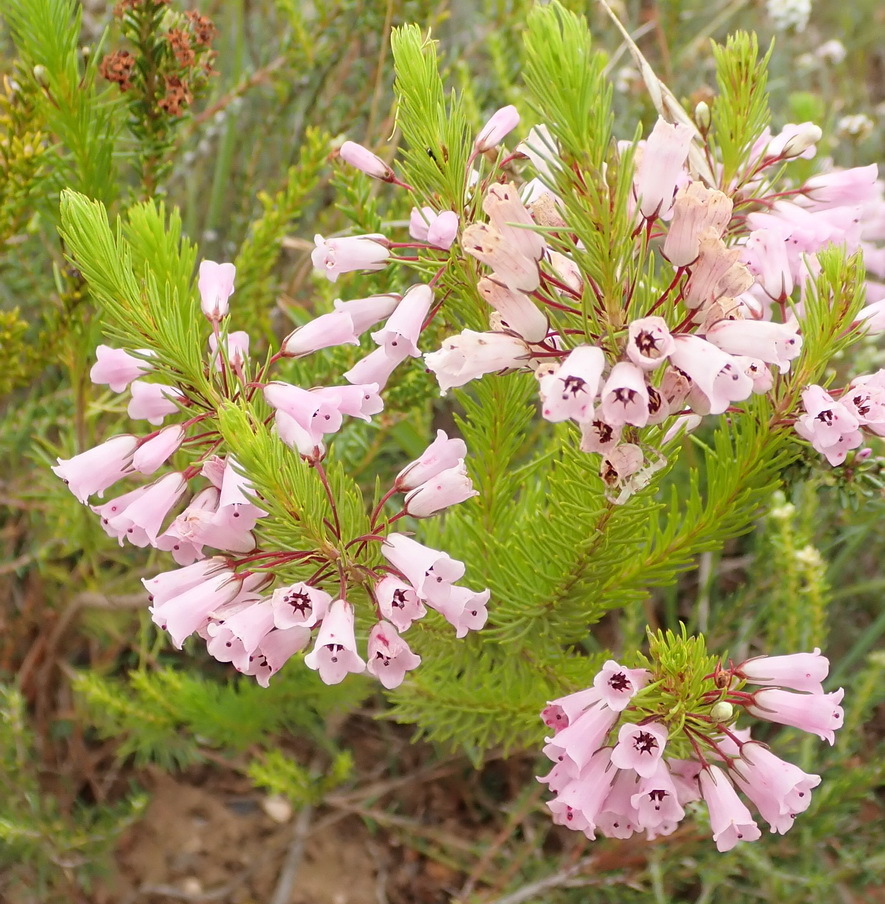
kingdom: Plantae
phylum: Tracheophyta
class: Magnoliopsida
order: Ericales
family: Ericaceae
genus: Erica
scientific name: Erica filamentosa
